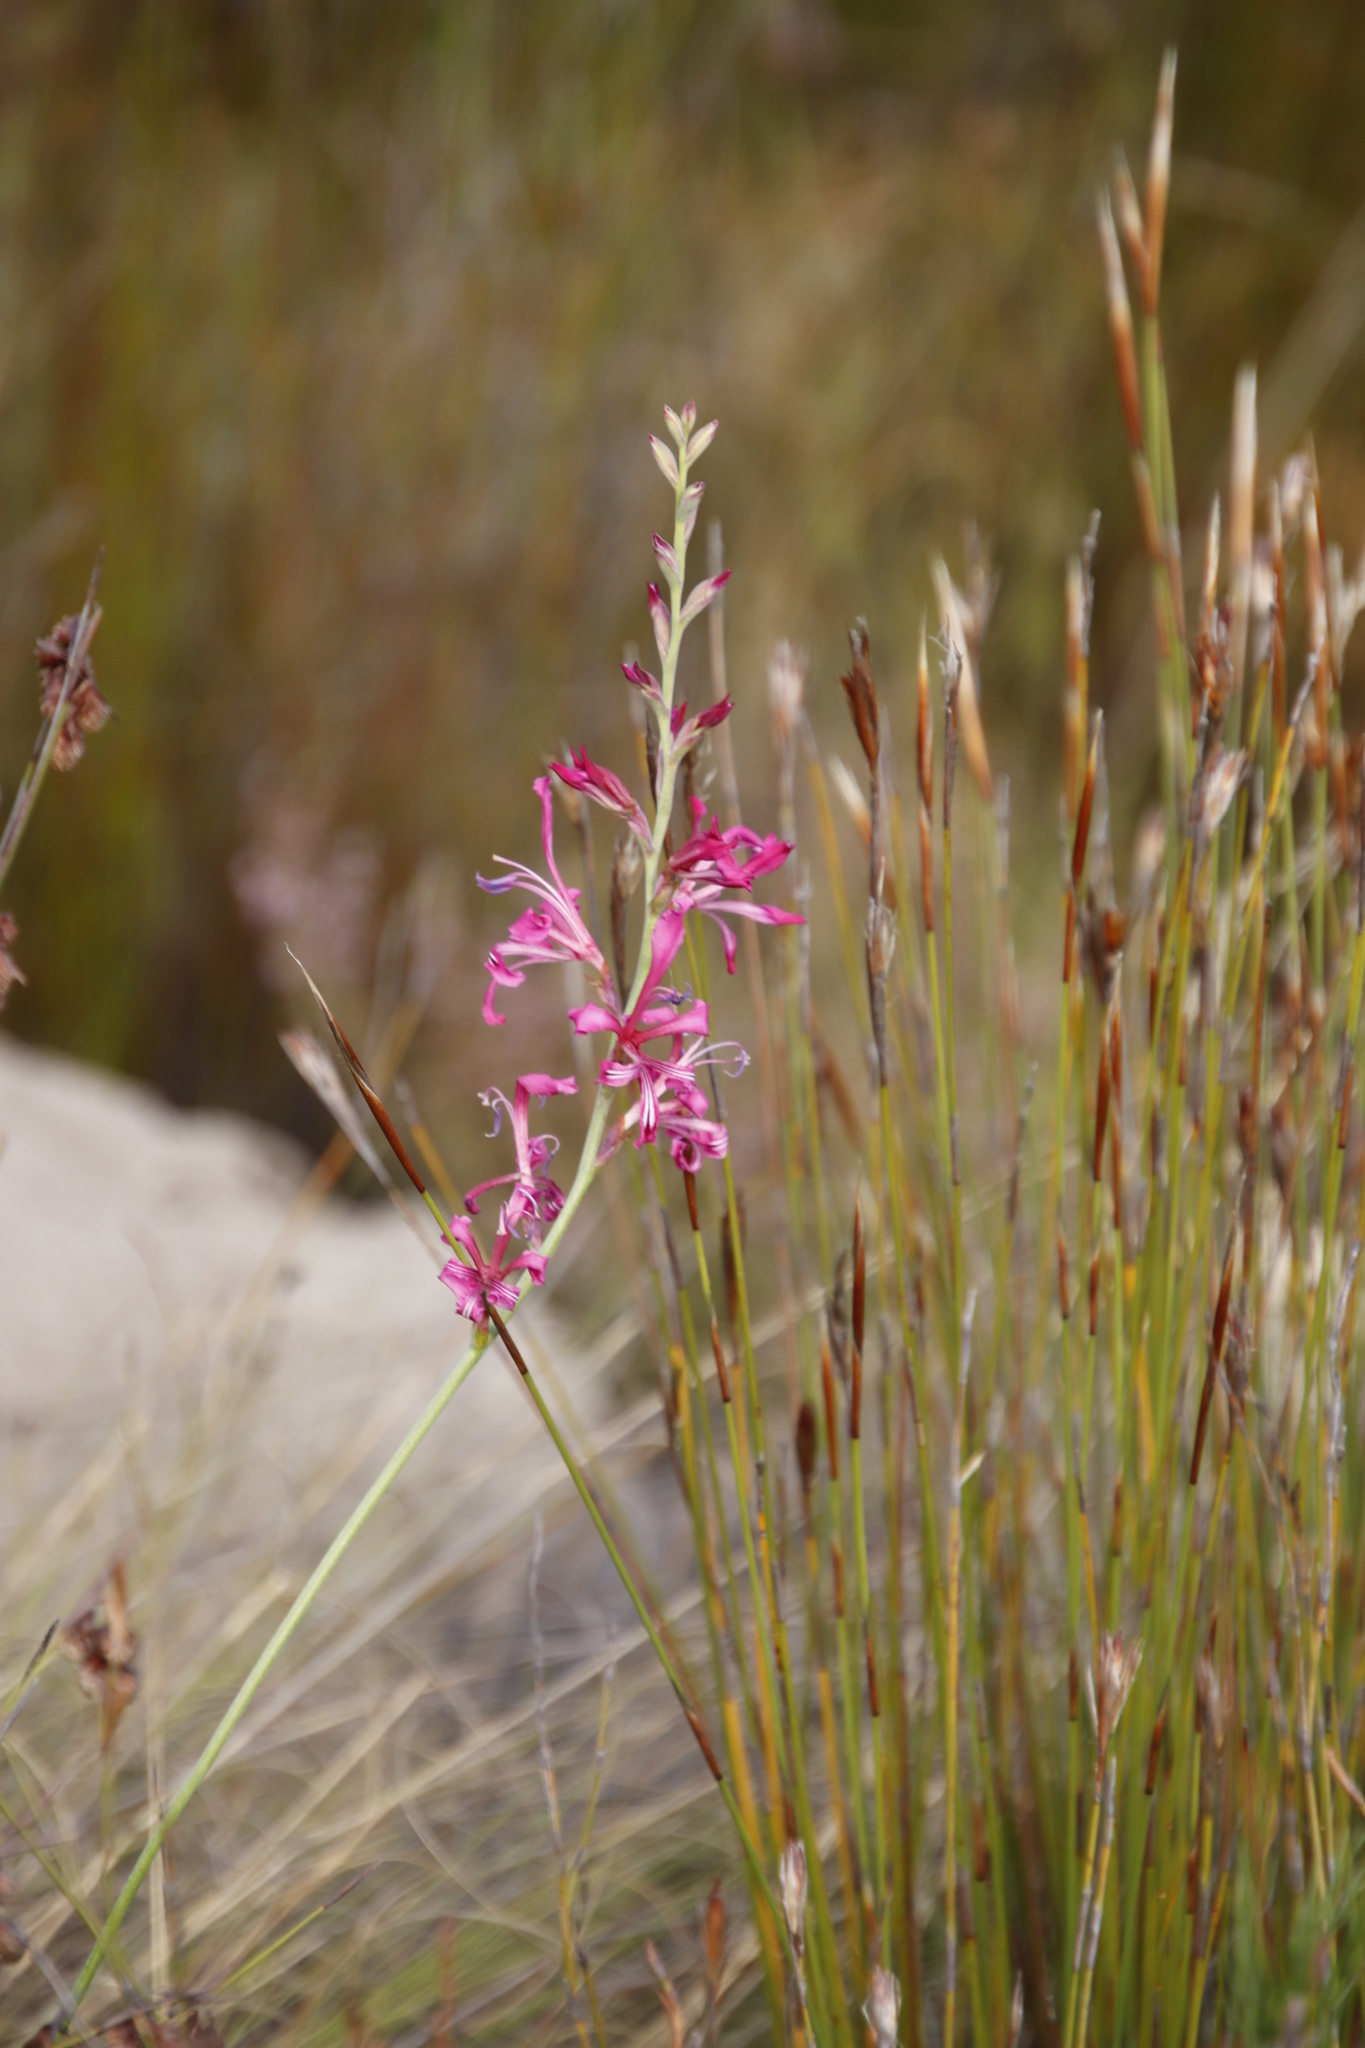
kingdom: Plantae
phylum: Tracheophyta
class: Liliopsida
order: Asparagales
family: Iridaceae
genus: Tritoniopsis
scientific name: Tritoniopsis lata
